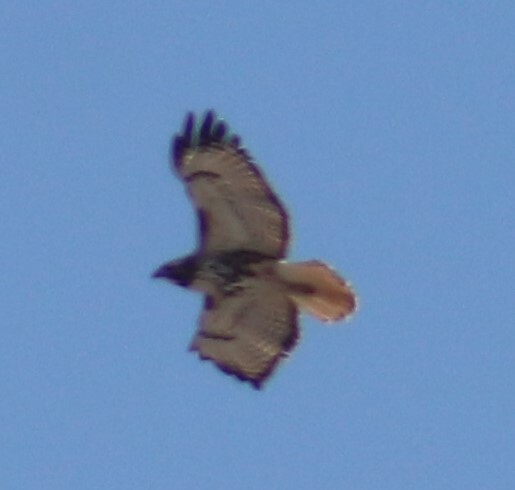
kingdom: Animalia
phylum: Chordata
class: Aves
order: Accipitriformes
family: Accipitridae
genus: Buteo
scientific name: Buteo jamaicensis
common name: Red-tailed hawk
